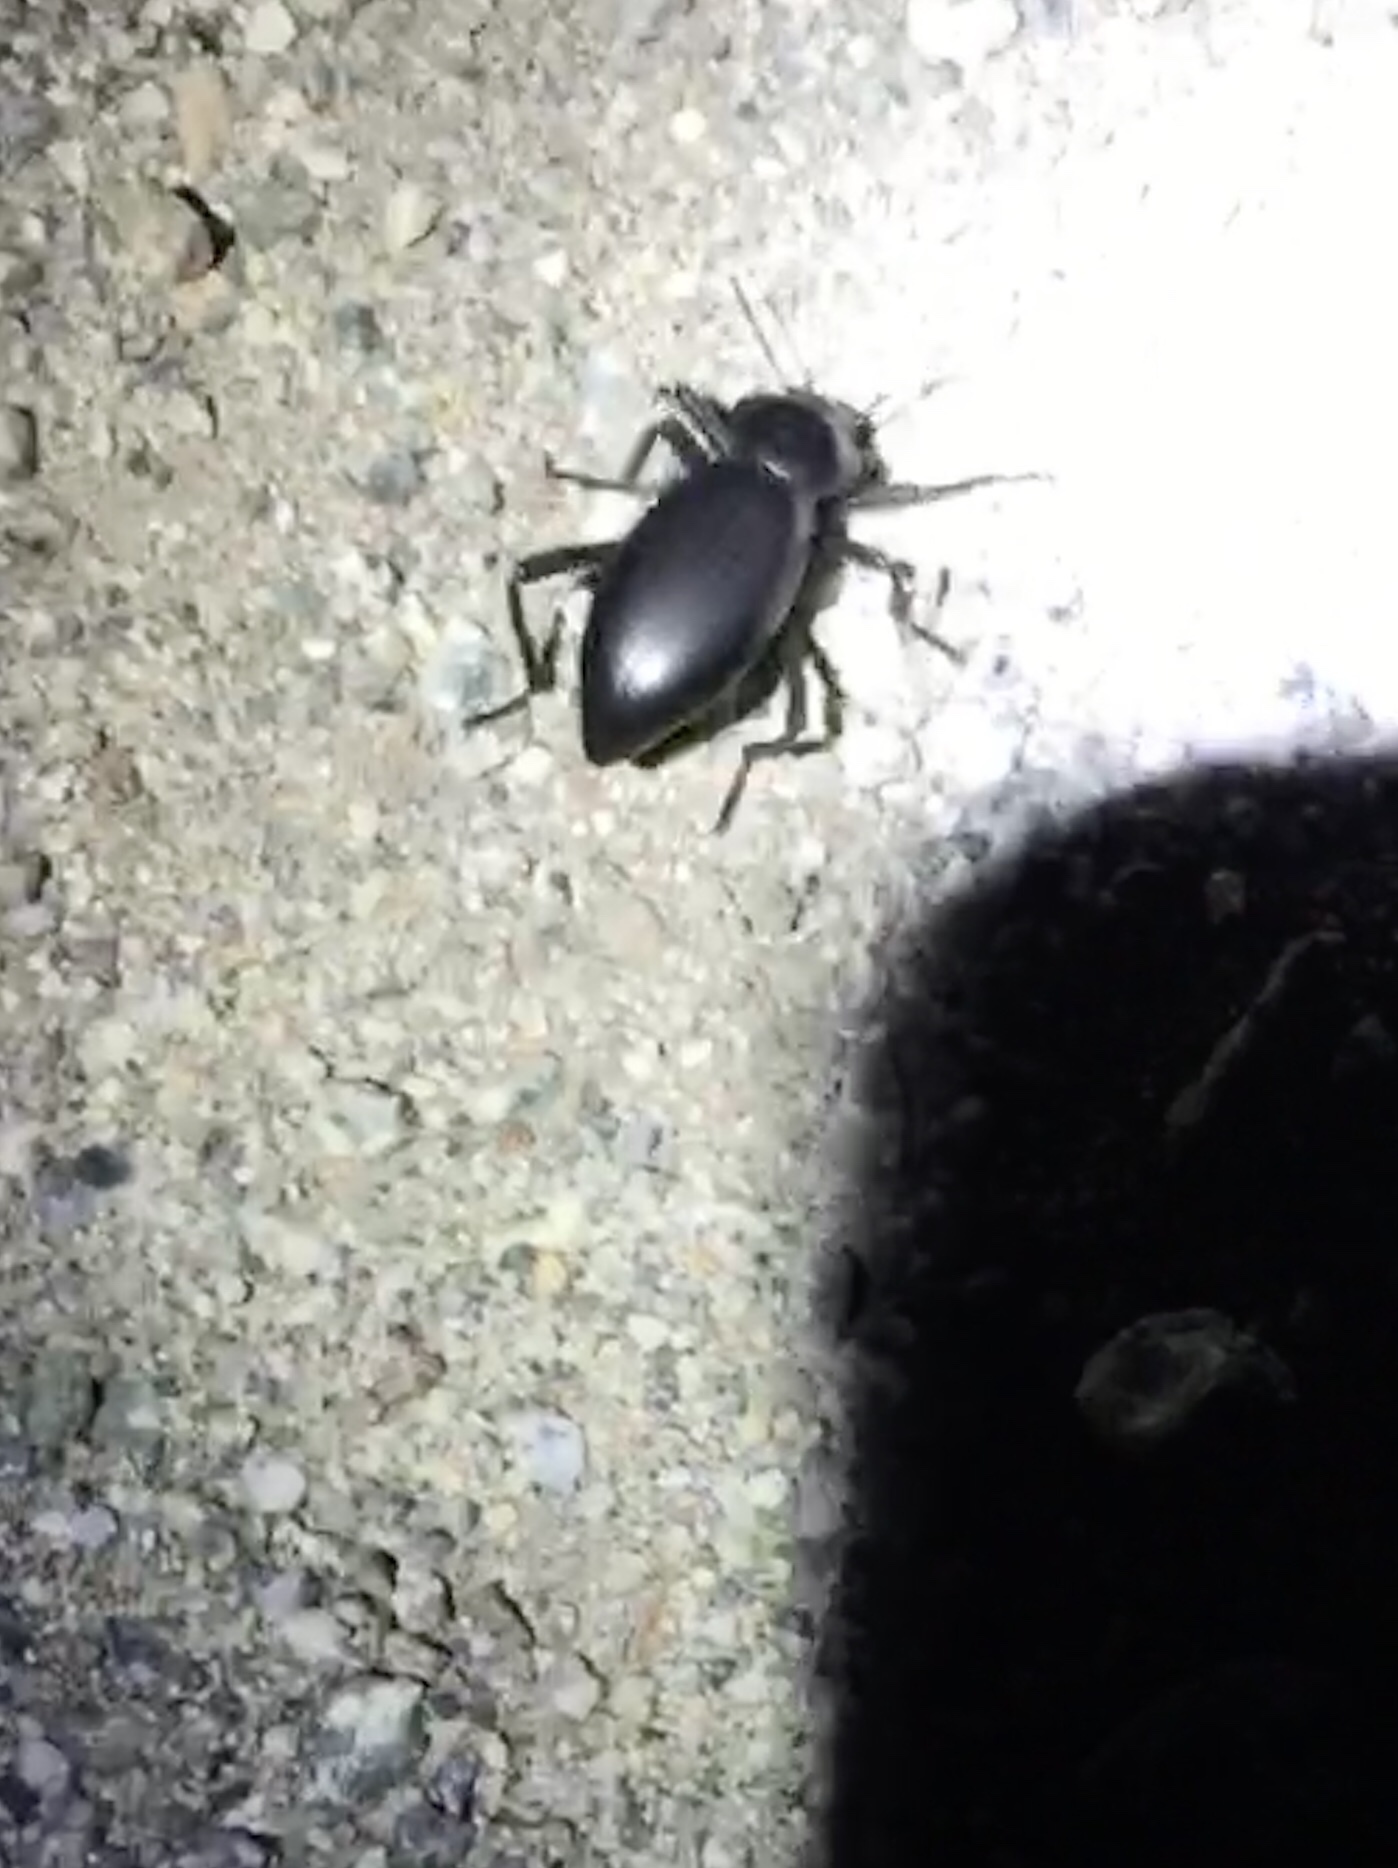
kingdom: Animalia
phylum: Arthropoda
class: Insecta
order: Coleoptera
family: Tenebrionidae
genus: Eleodes
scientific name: Eleodes dentipes
